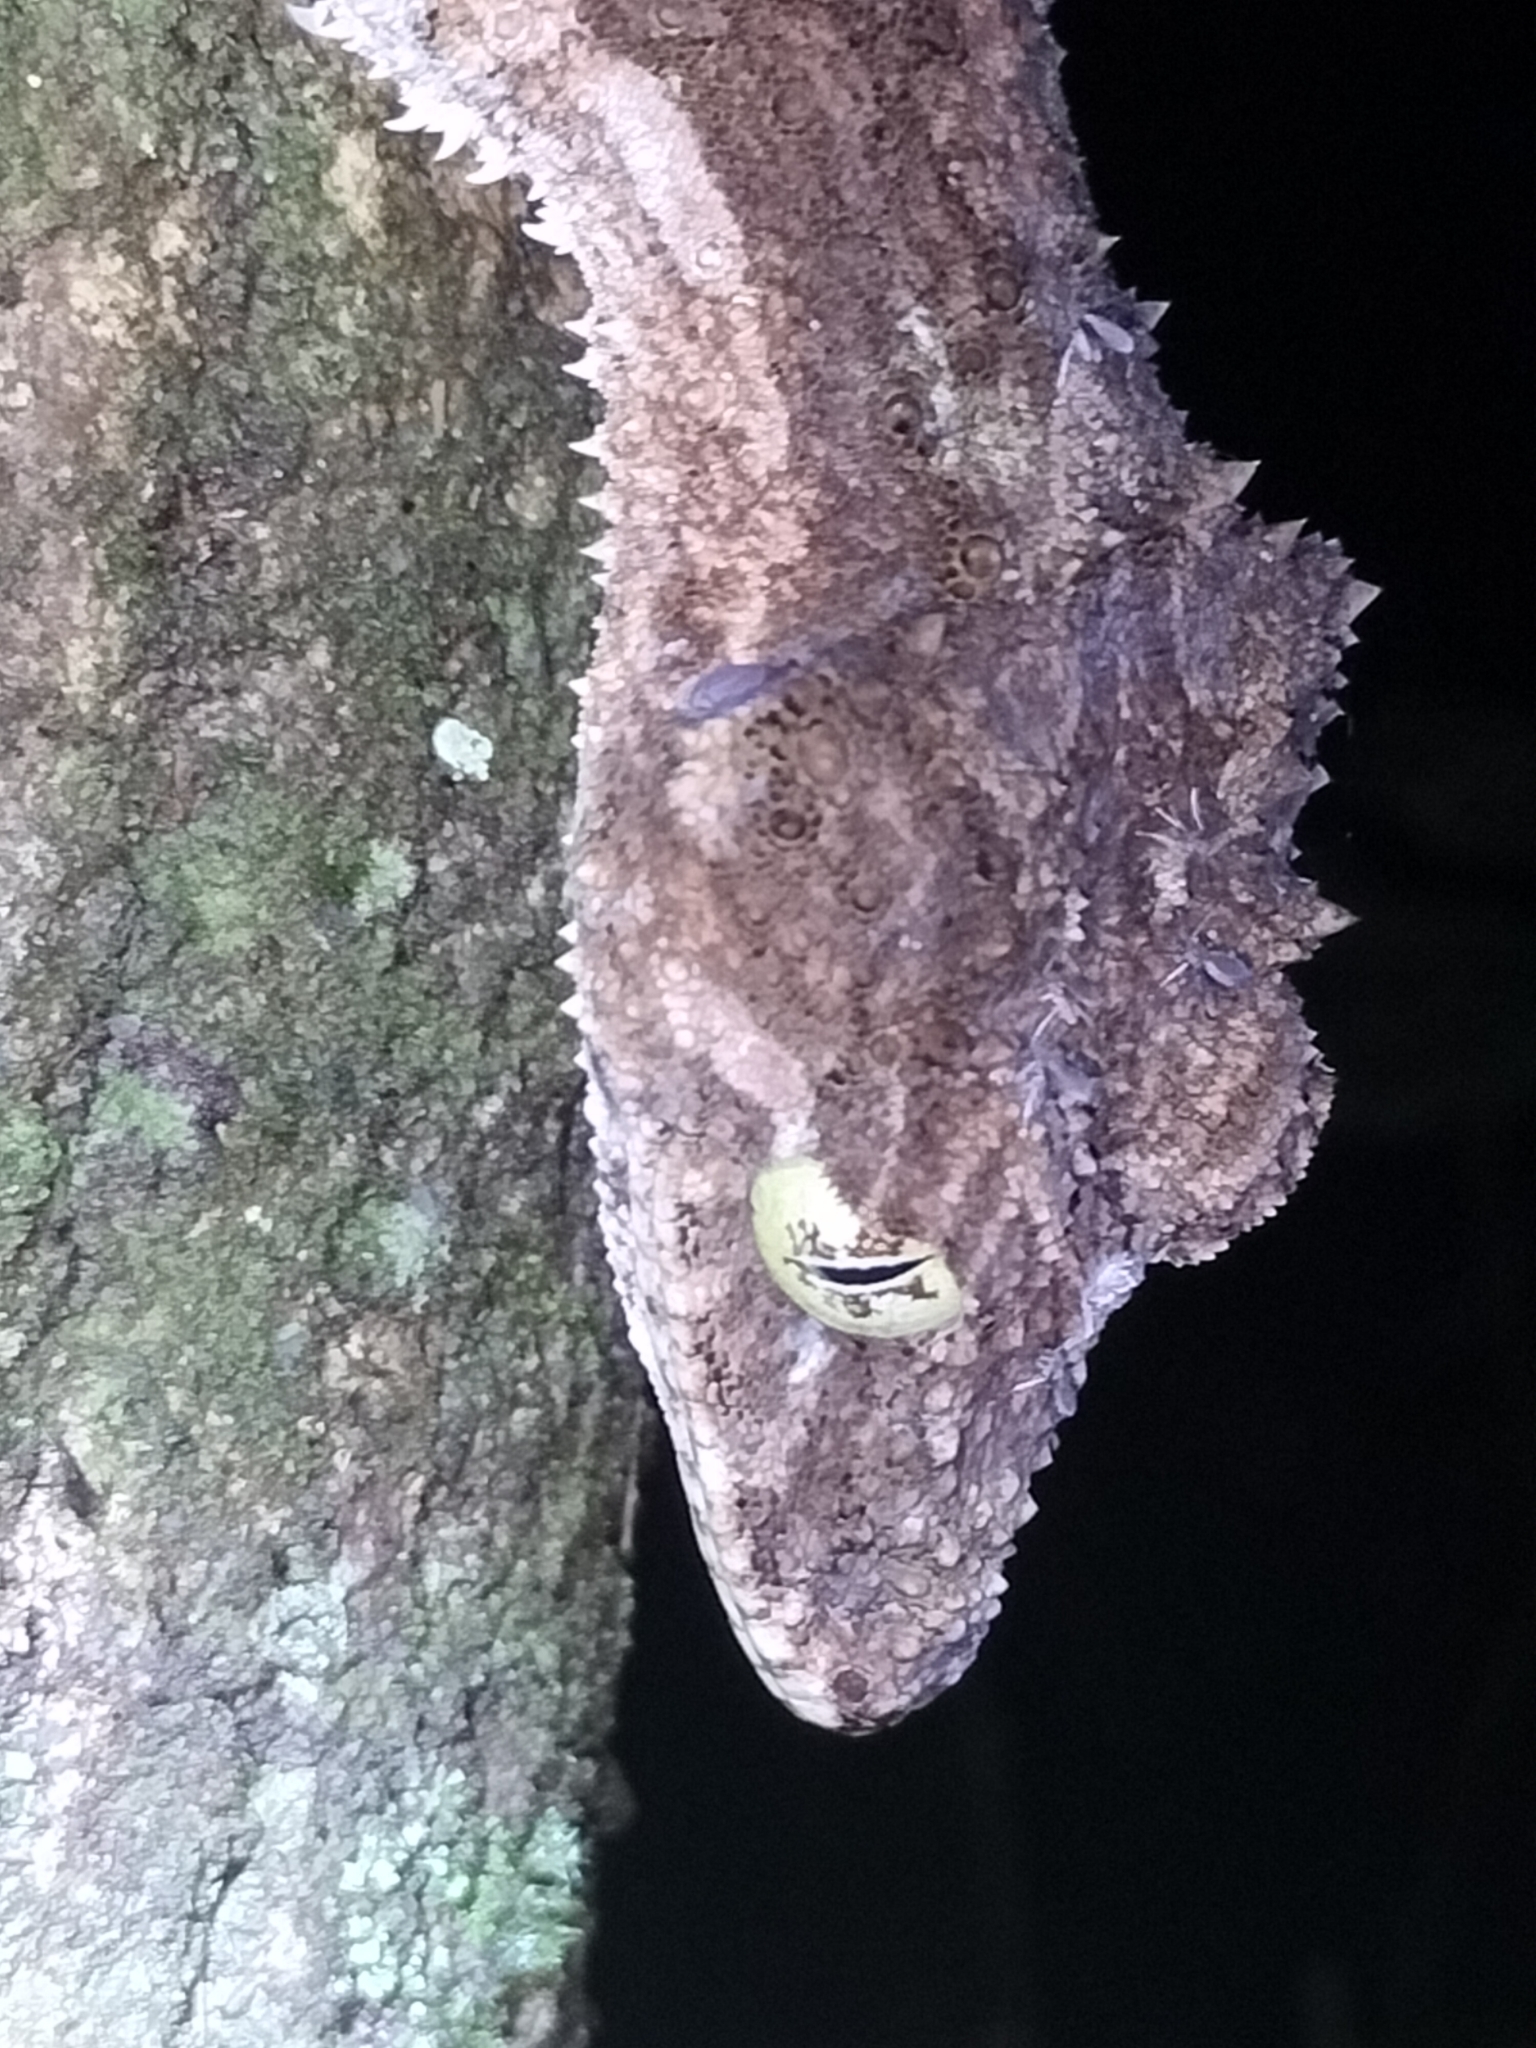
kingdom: Animalia
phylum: Chordata
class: Squamata
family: Carphodactylidae
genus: Saltuarius
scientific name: Saltuarius cornutus
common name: Leaf-tailed gecko
